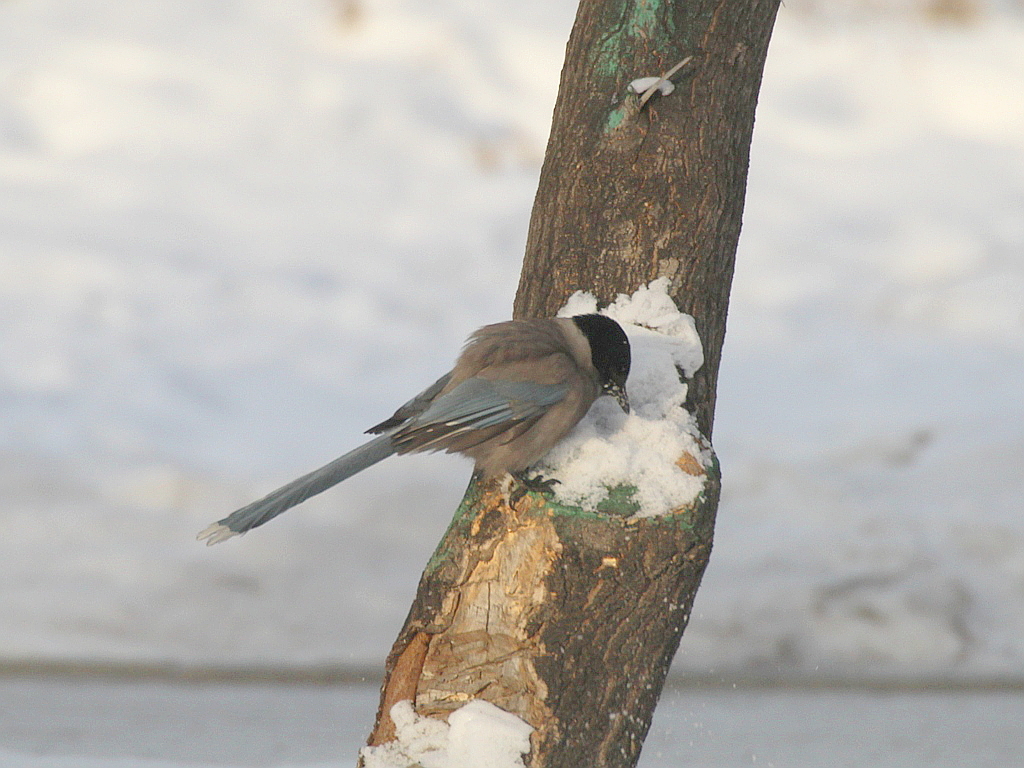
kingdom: Animalia
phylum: Chordata
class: Aves
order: Passeriformes
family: Corvidae
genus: Cyanopica
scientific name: Cyanopica cyanus
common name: Azure-winged magpie
